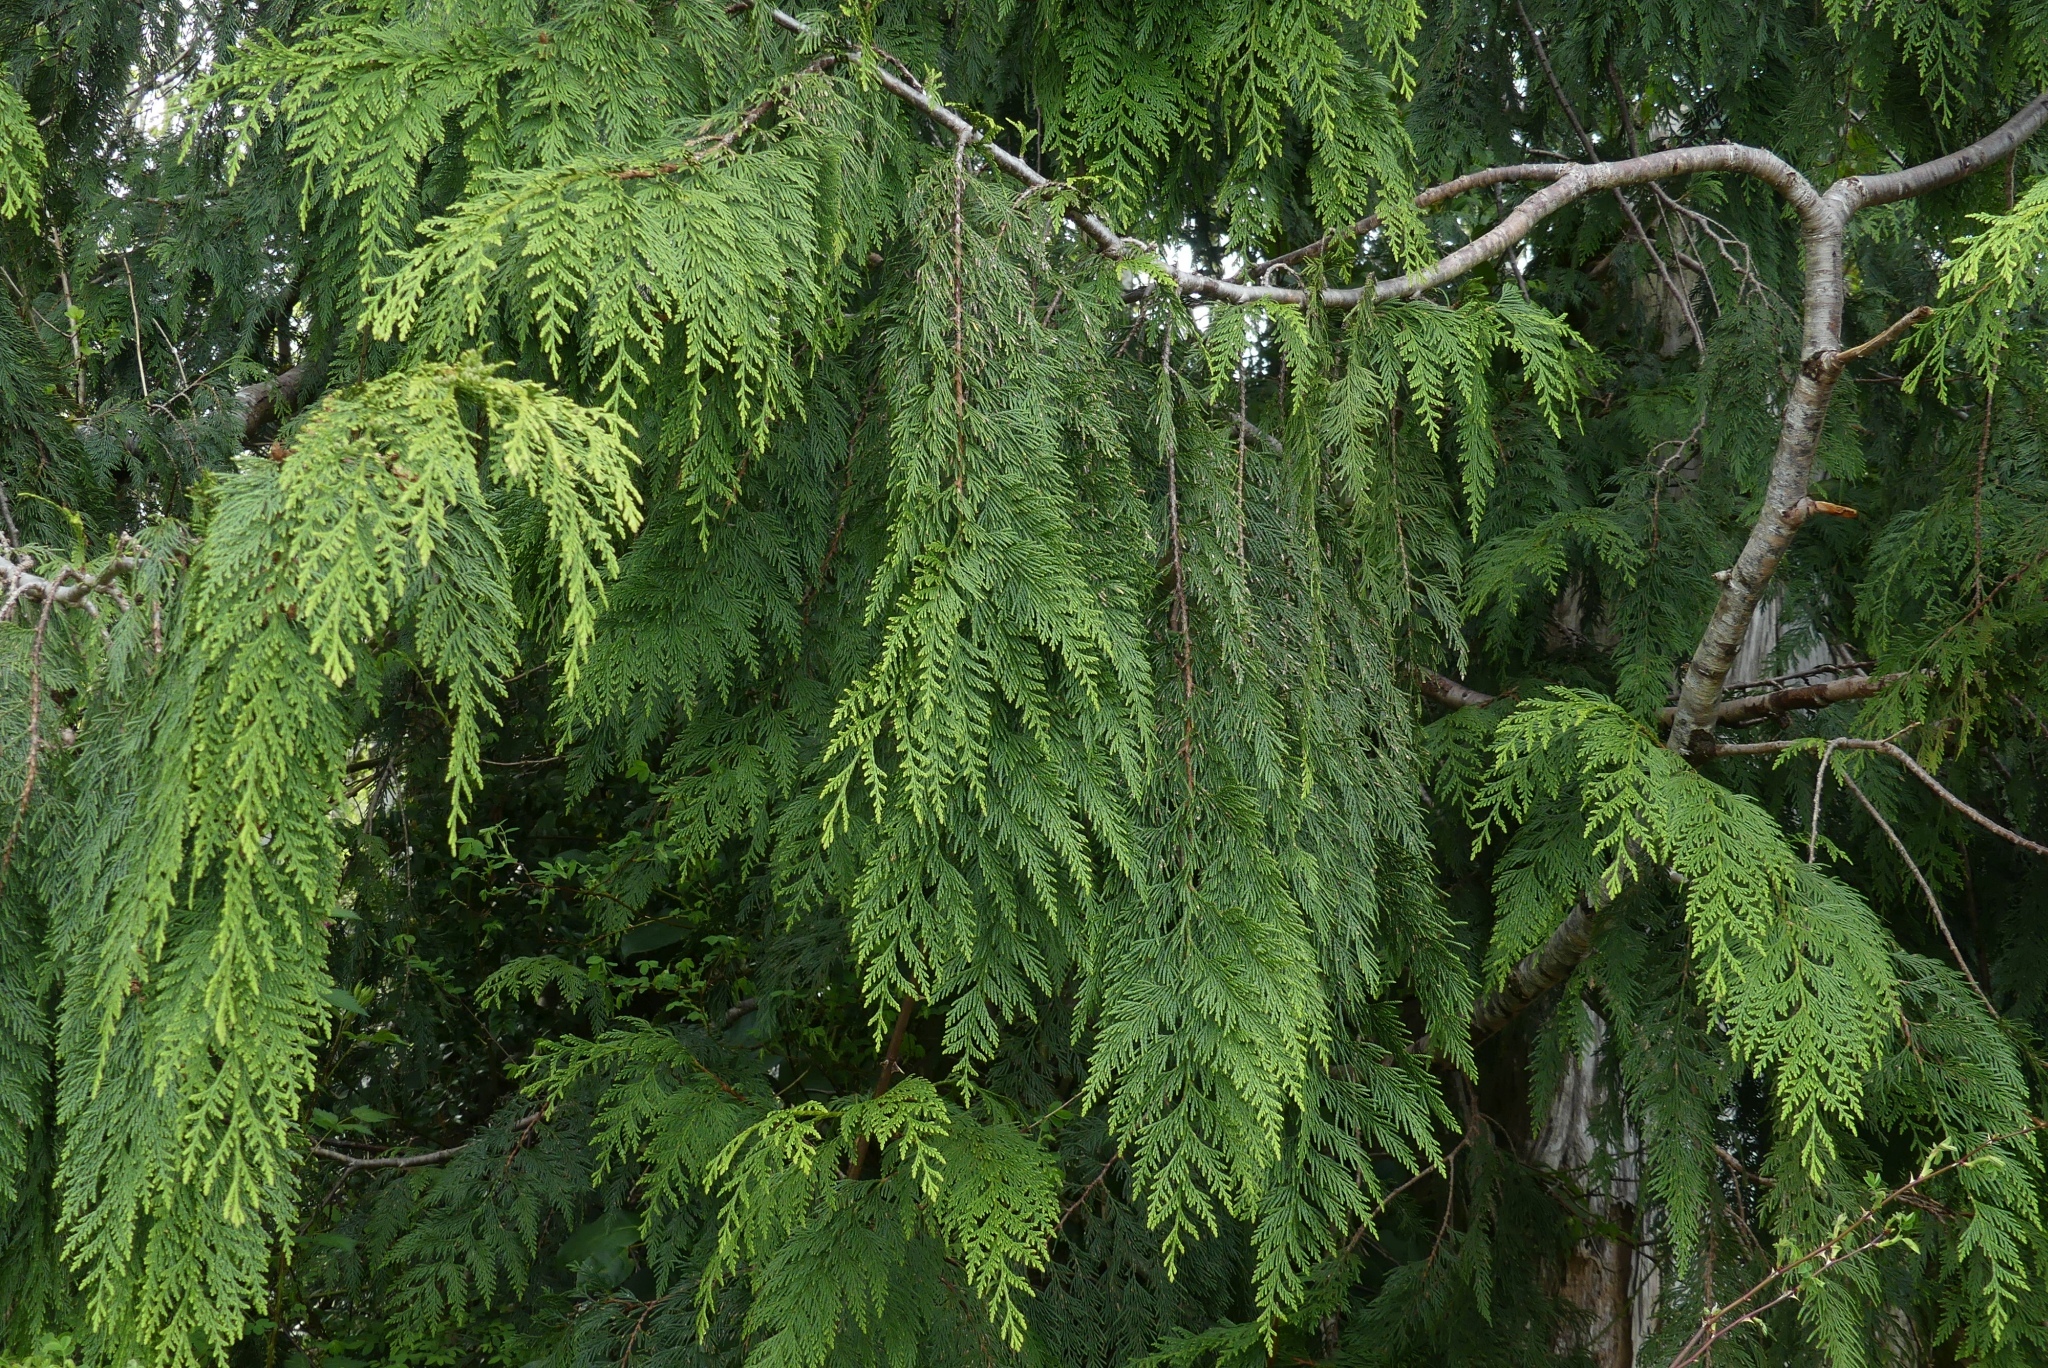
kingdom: Plantae
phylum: Tracheophyta
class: Pinopsida
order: Pinales
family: Cupressaceae
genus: Thuja
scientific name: Thuja plicata
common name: Western red-cedar
